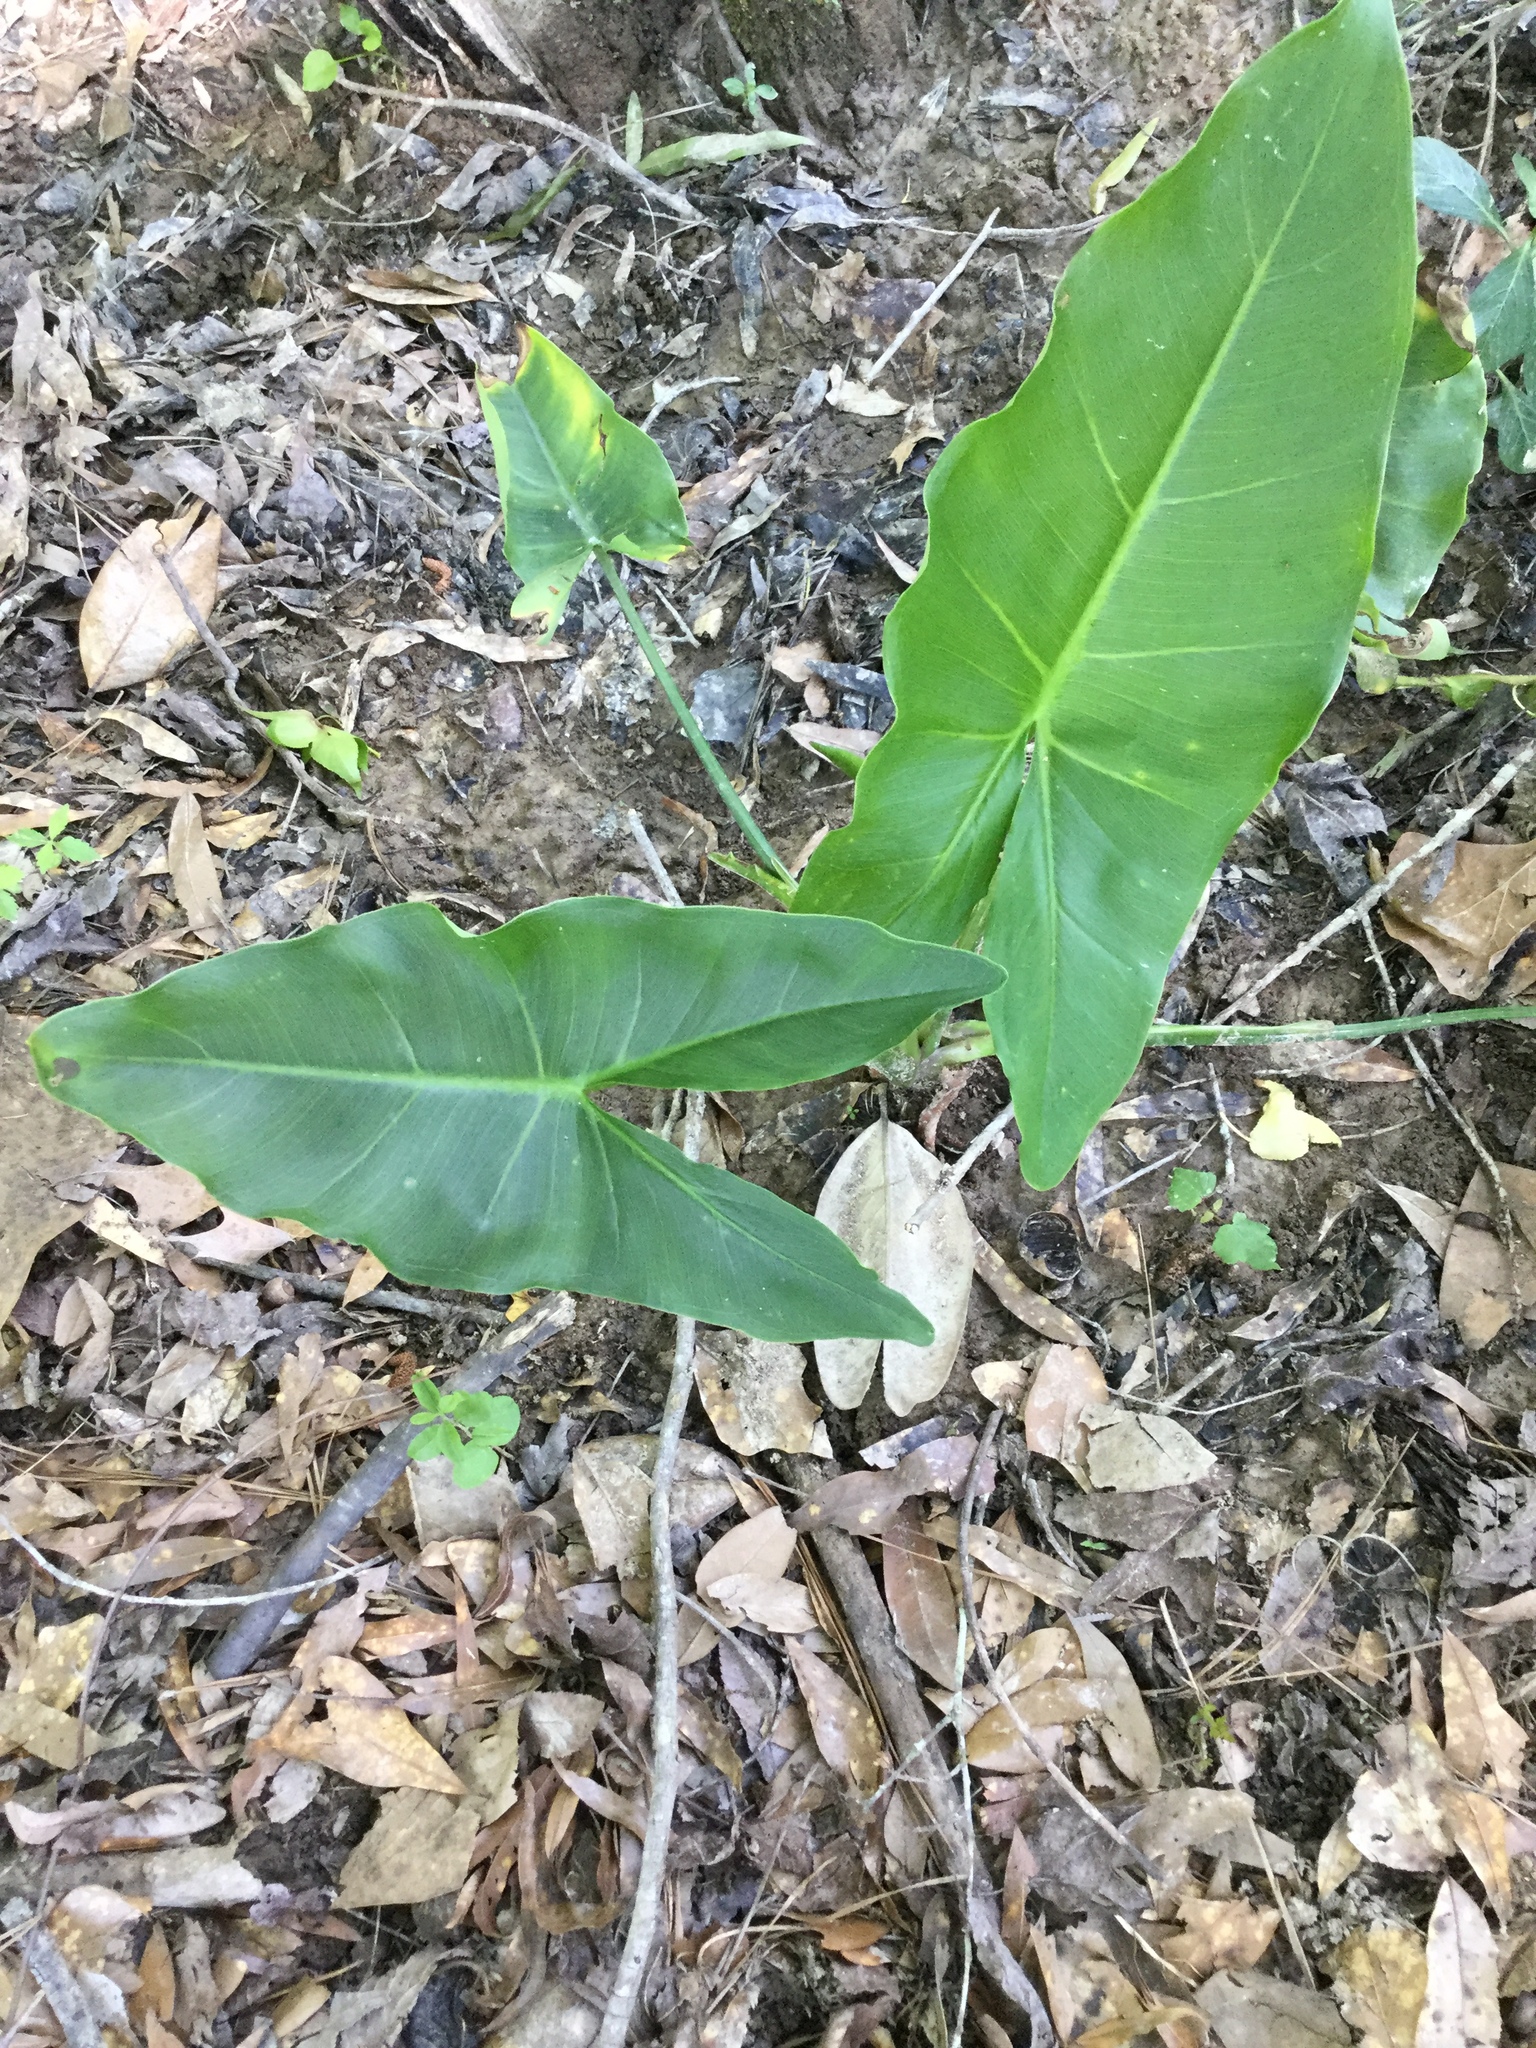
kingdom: Plantae
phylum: Tracheophyta
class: Liliopsida
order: Alismatales
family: Araceae
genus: Peltandra
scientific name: Peltandra virginica
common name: Arrow arum
